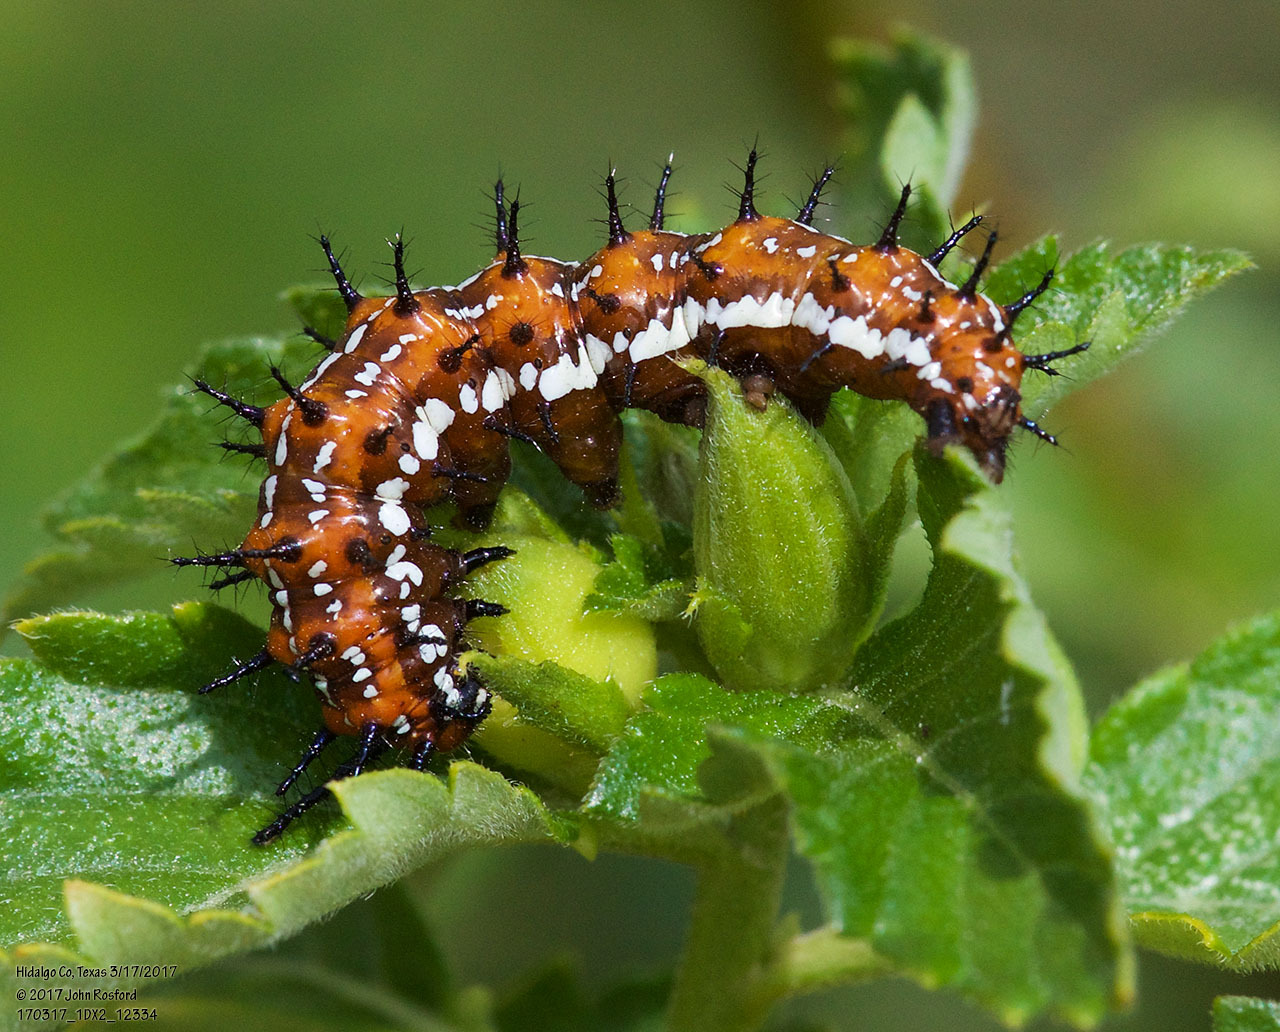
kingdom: Animalia
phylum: Arthropoda
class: Insecta
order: Lepidoptera
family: Nymphalidae
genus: Euptoieta
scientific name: Euptoieta claudia
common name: Variegated fritillary
